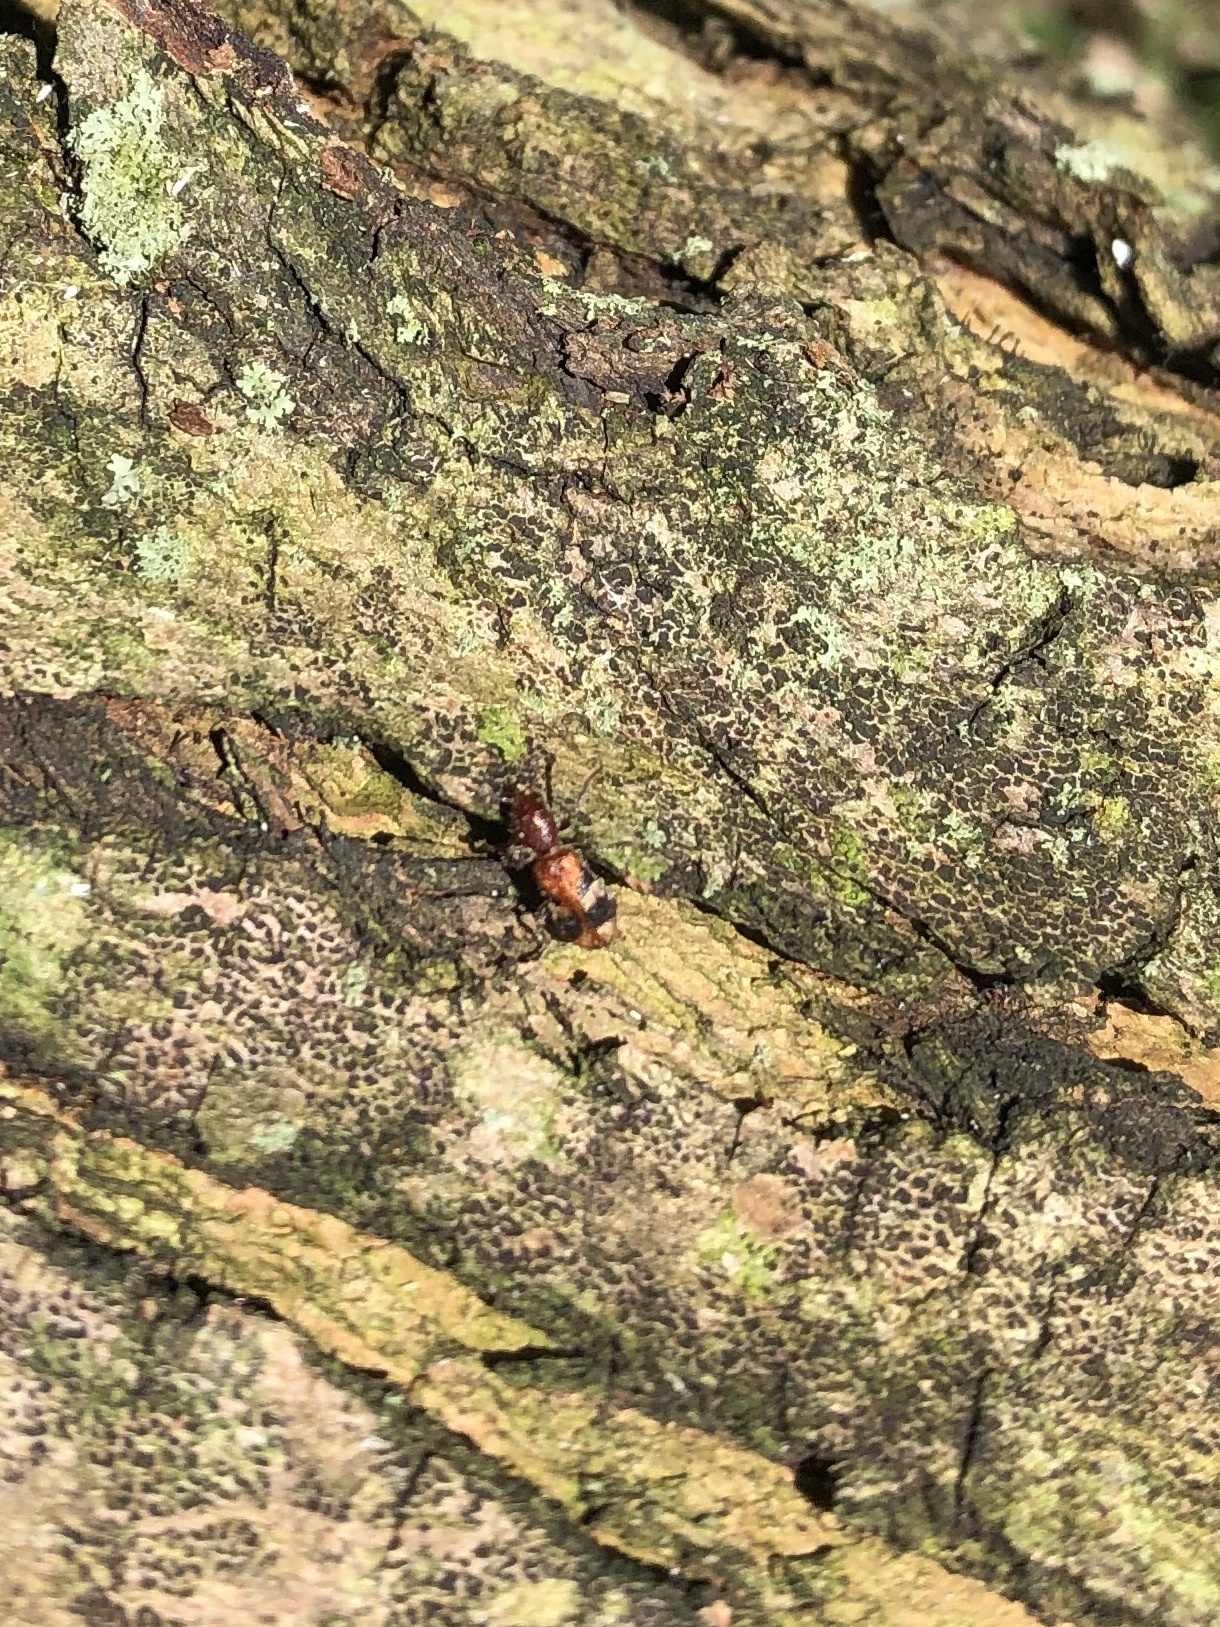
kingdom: Animalia
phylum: Arthropoda
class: Insecta
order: Coleoptera
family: Cleridae
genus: Enoclerus
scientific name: Enoclerus rosmarus
